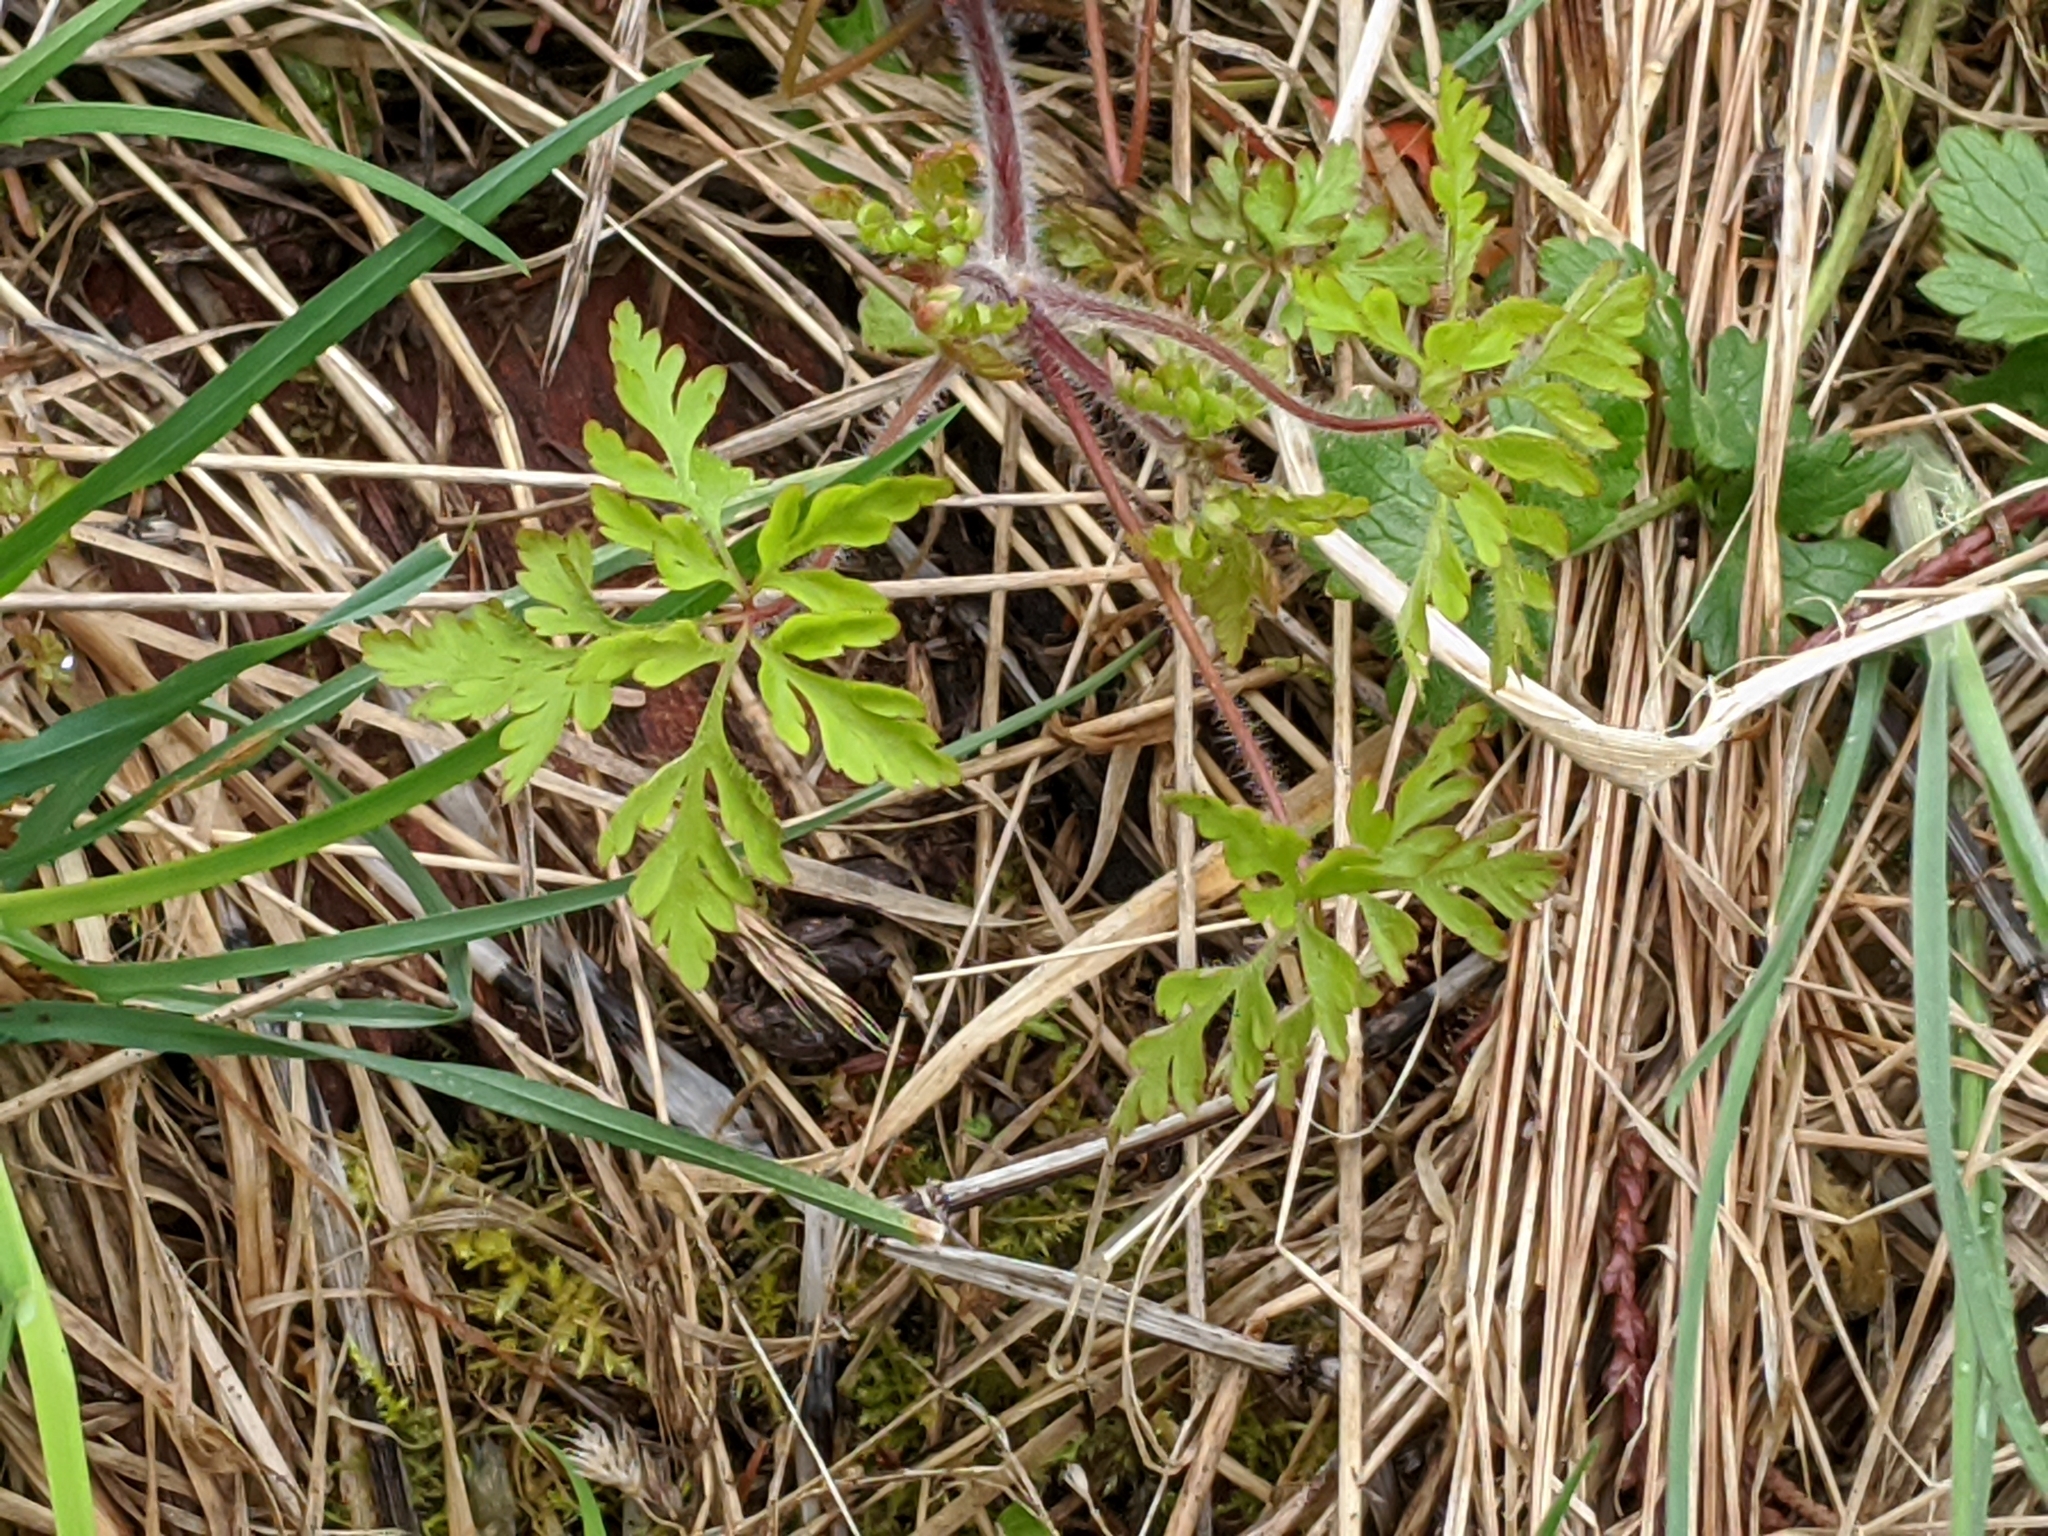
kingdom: Plantae
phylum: Tracheophyta
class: Magnoliopsida
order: Geraniales
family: Geraniaceae
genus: Geranium
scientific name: Geranium robertianum
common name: Herb-robert
